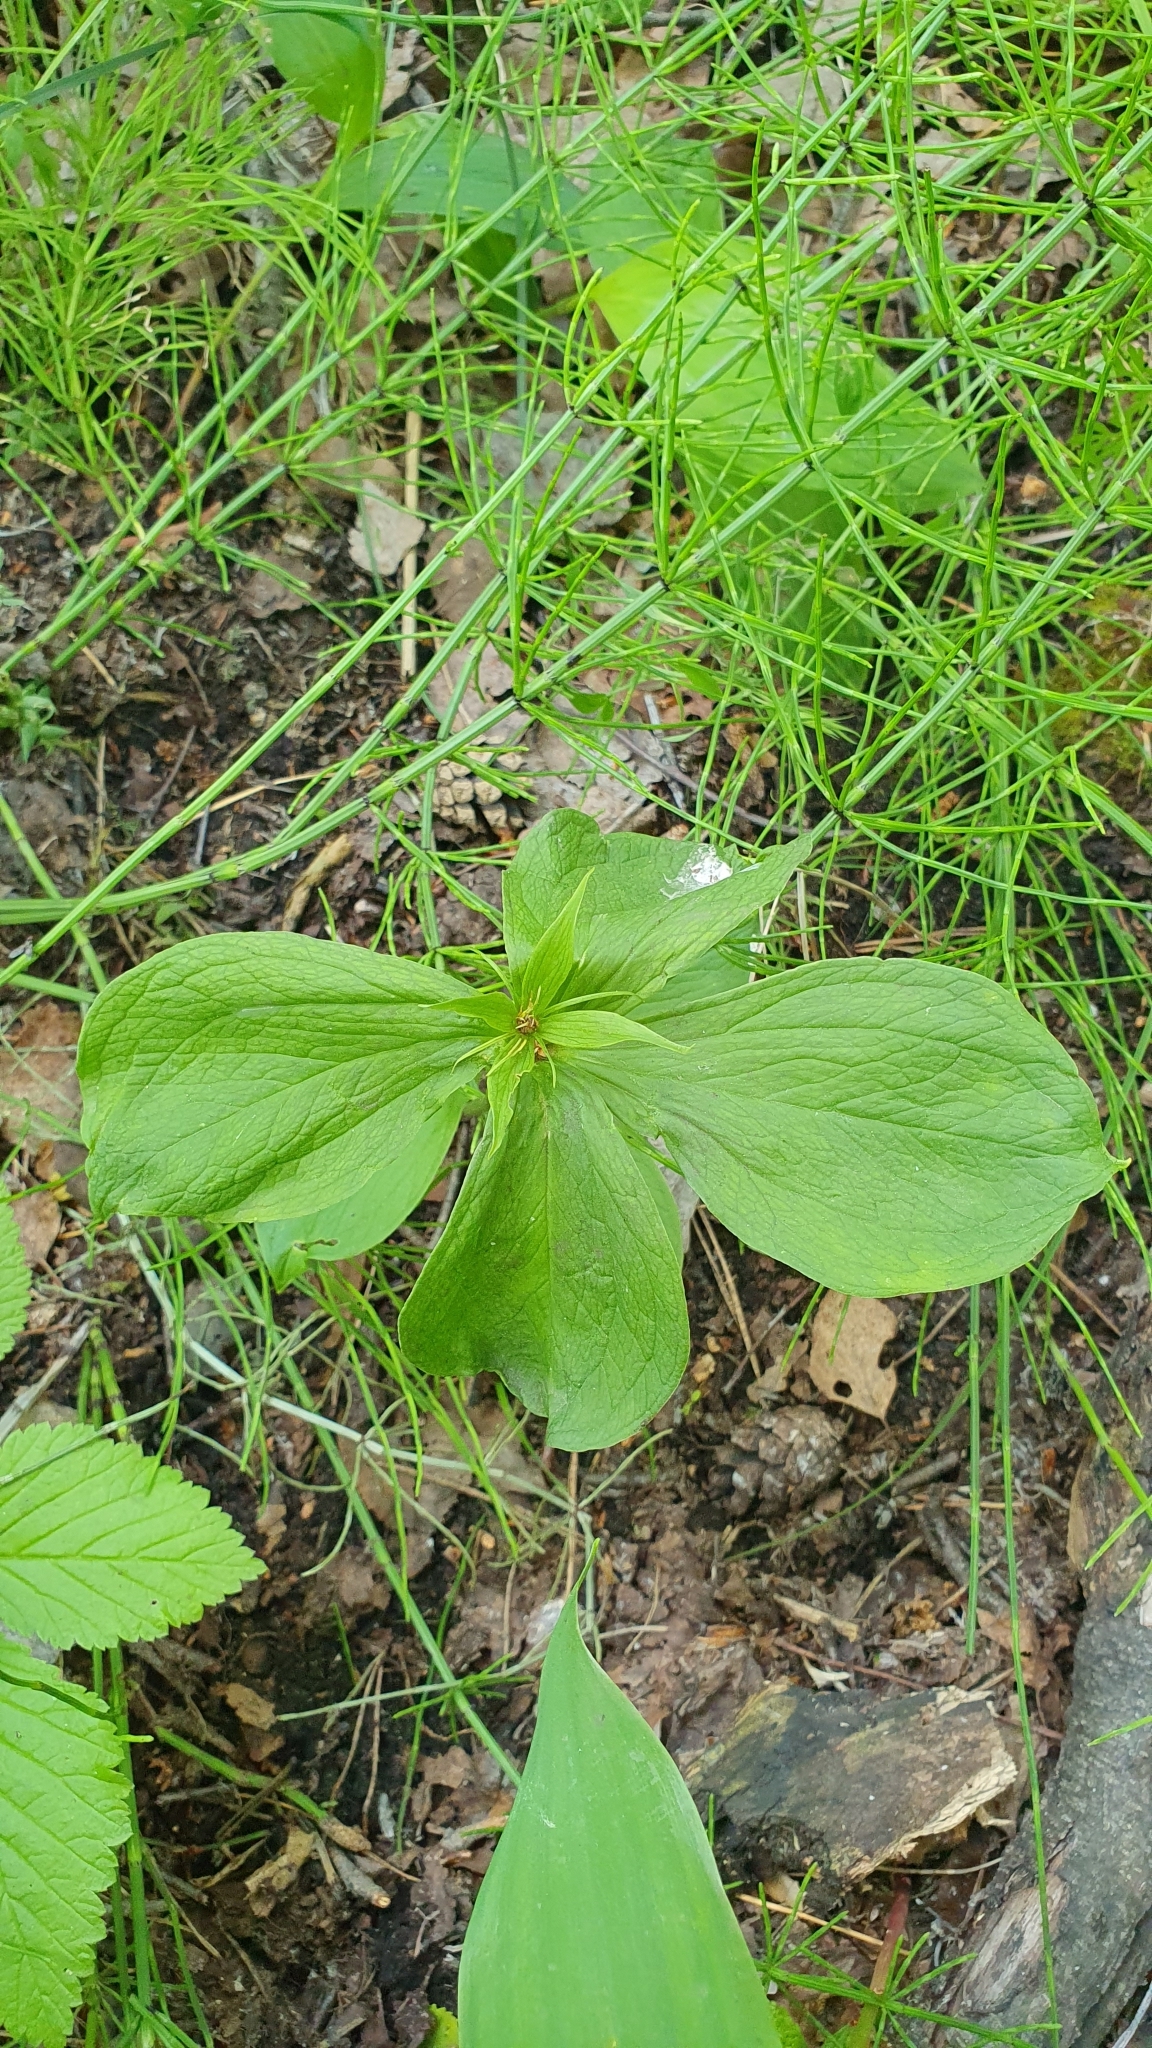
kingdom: Plantae
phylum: Tracheophyta
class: Liliopsida
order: Liliales
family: Melanthiaceae
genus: Paris
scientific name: Paris quadrifolia
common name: Herb-paris
